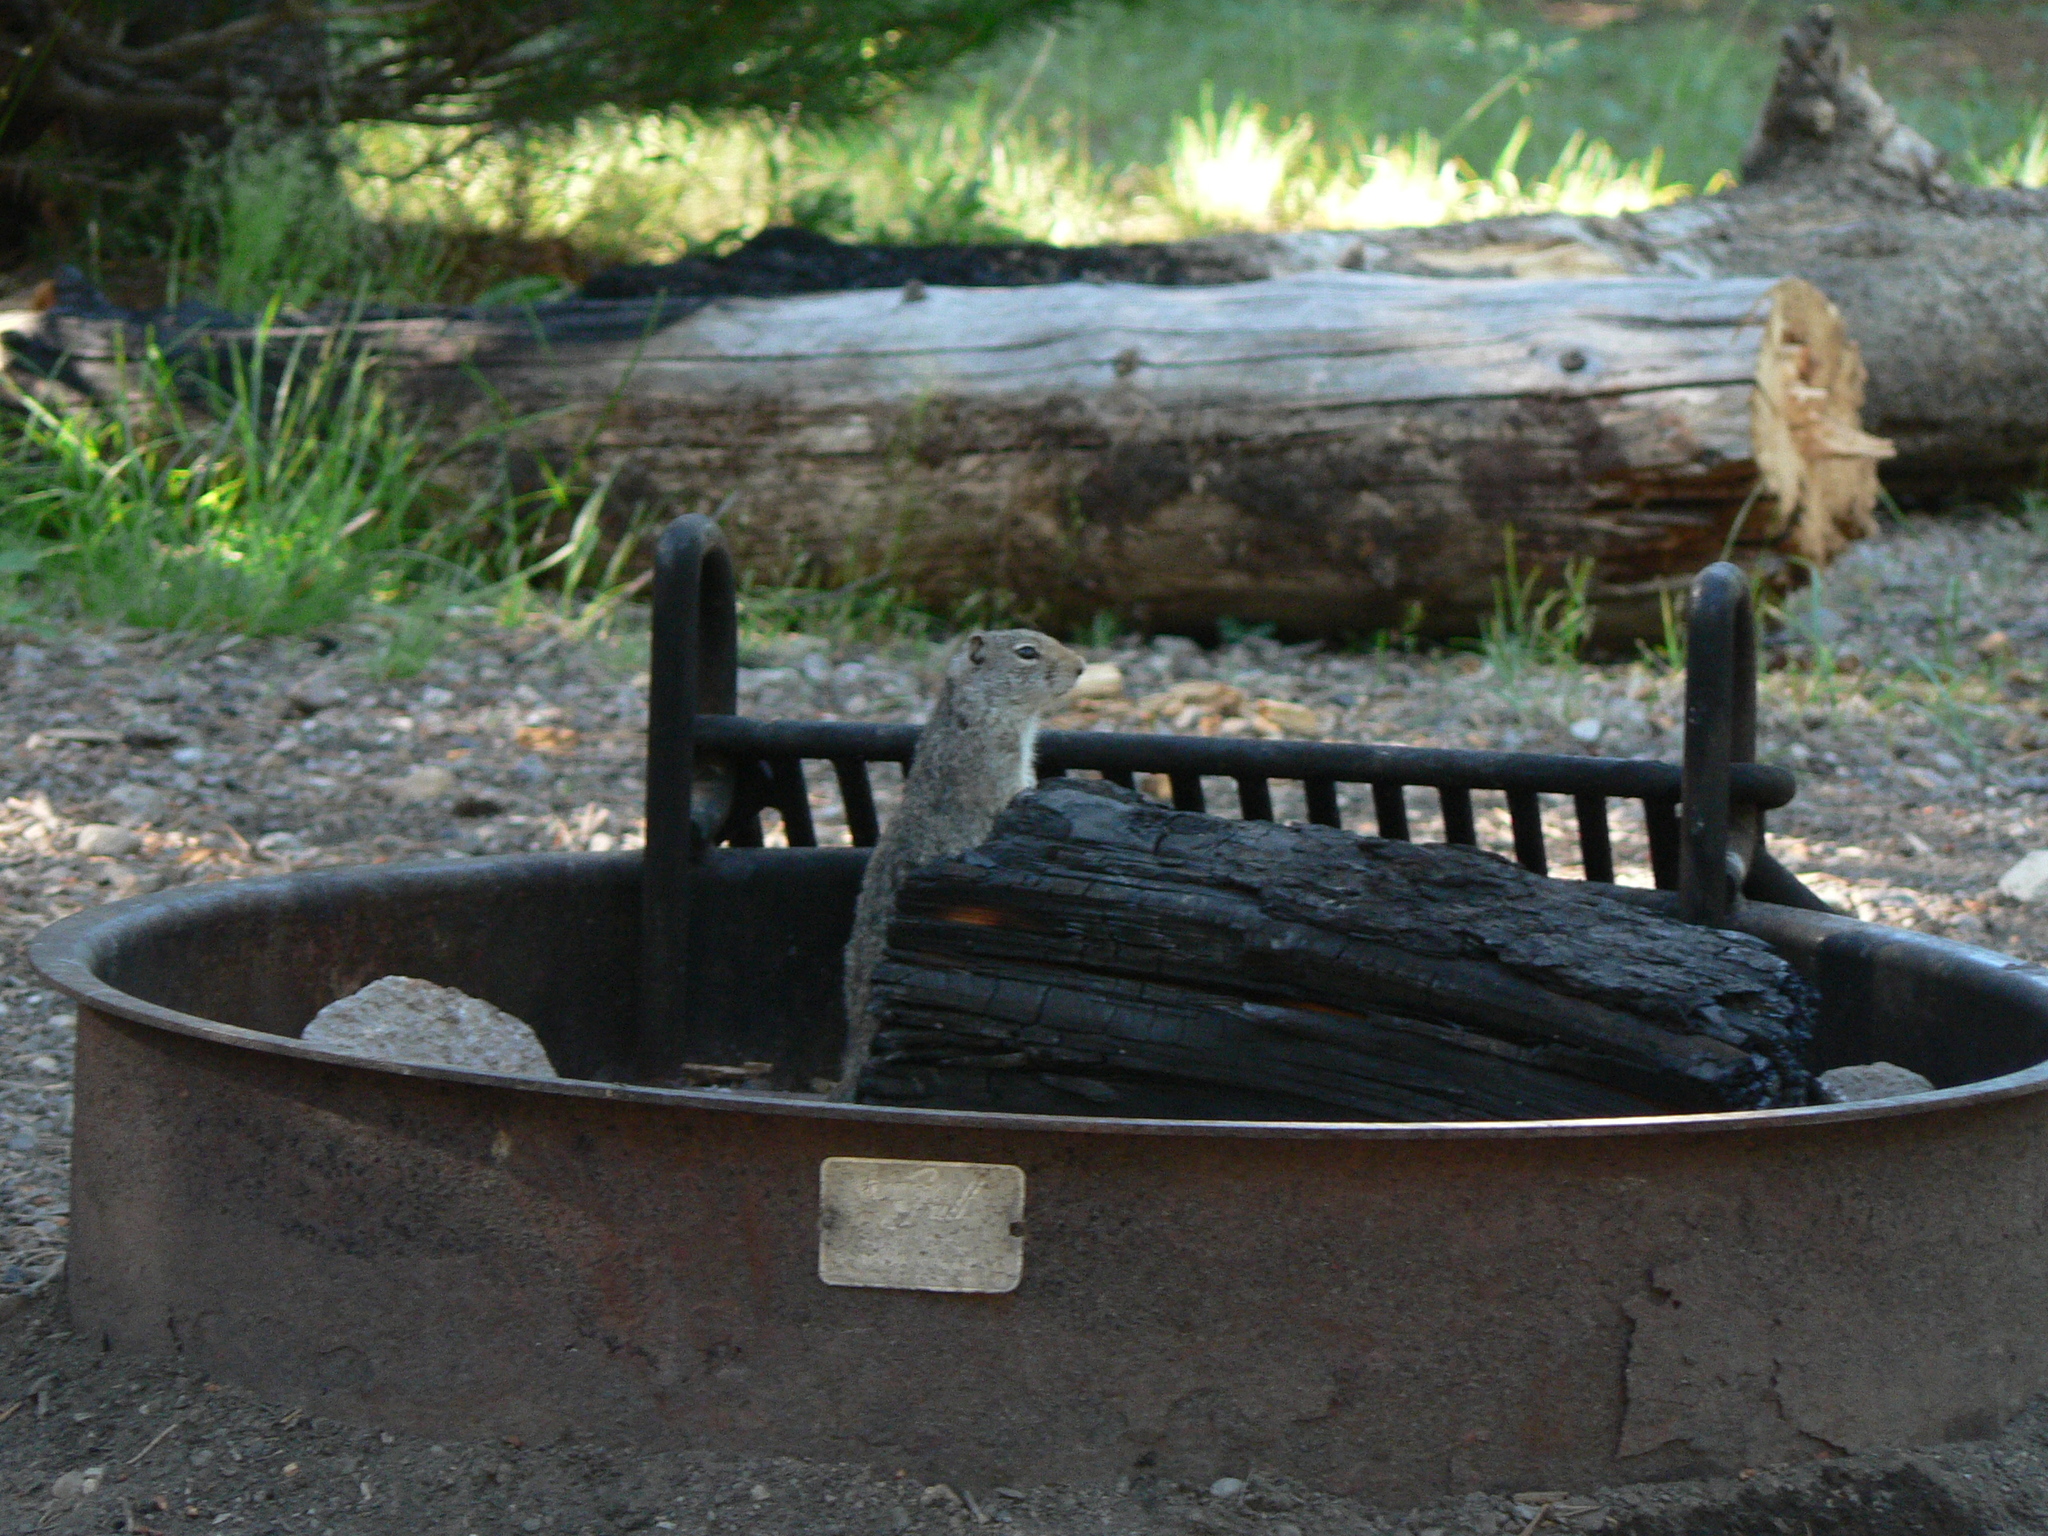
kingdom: Animalia
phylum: Chordata
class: Mammalia
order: Rodentia
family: Sciuridae
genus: Urocitellus
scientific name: Urocitellus armatus
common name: Uinta ground squirrel
